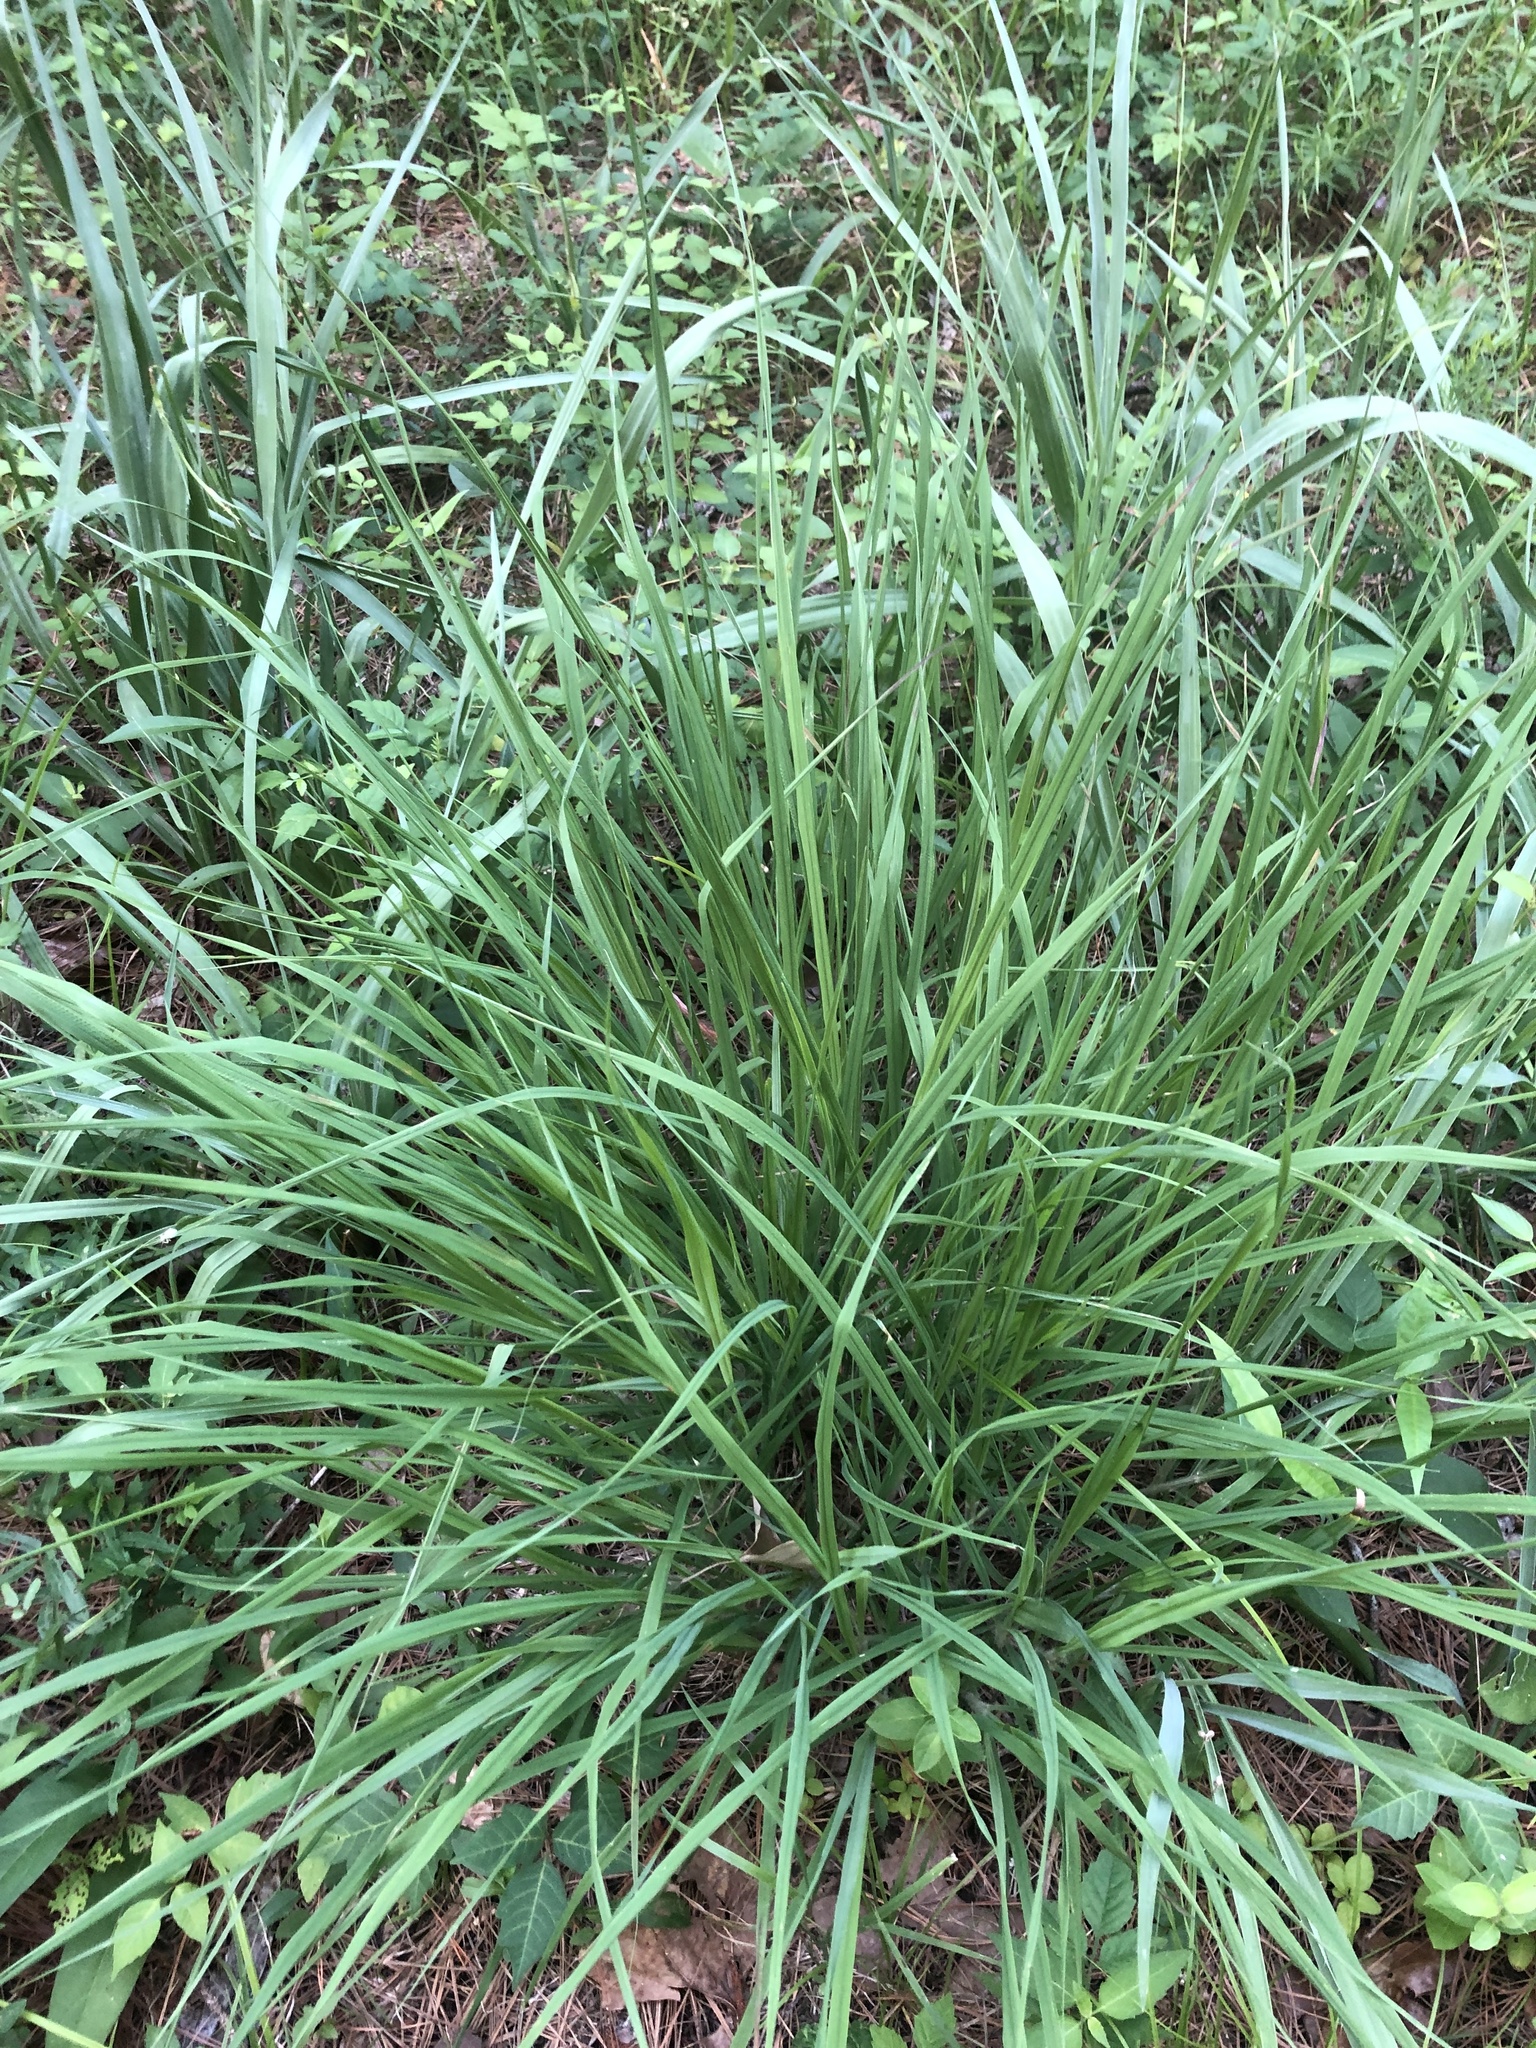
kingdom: Plantae
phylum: Tracheophyta
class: Liliopsida
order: Poales
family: Poaceae
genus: Andropogon
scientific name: Andropogon gerardi
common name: Big bluestem
